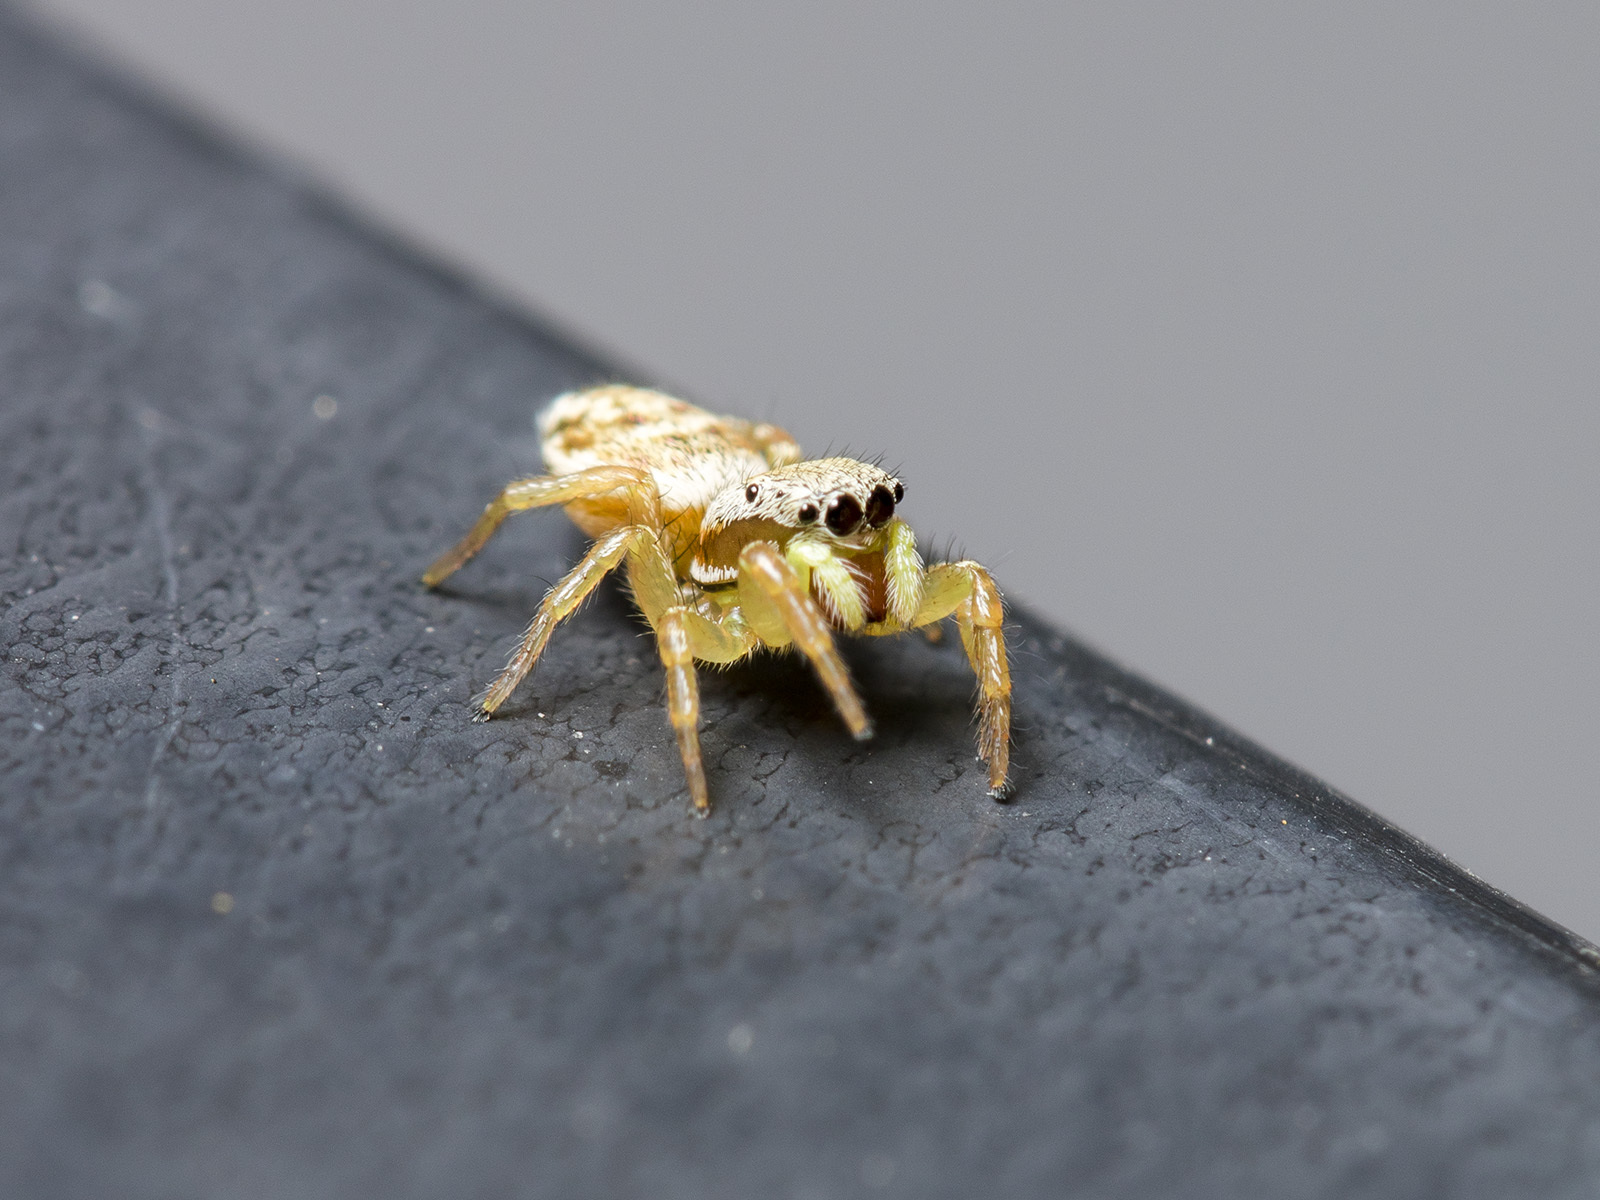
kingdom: Animalia
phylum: Arthropoda
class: Arachnida
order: Araneae
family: Salticidae
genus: Heliophanus
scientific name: Heliophanus potanini
